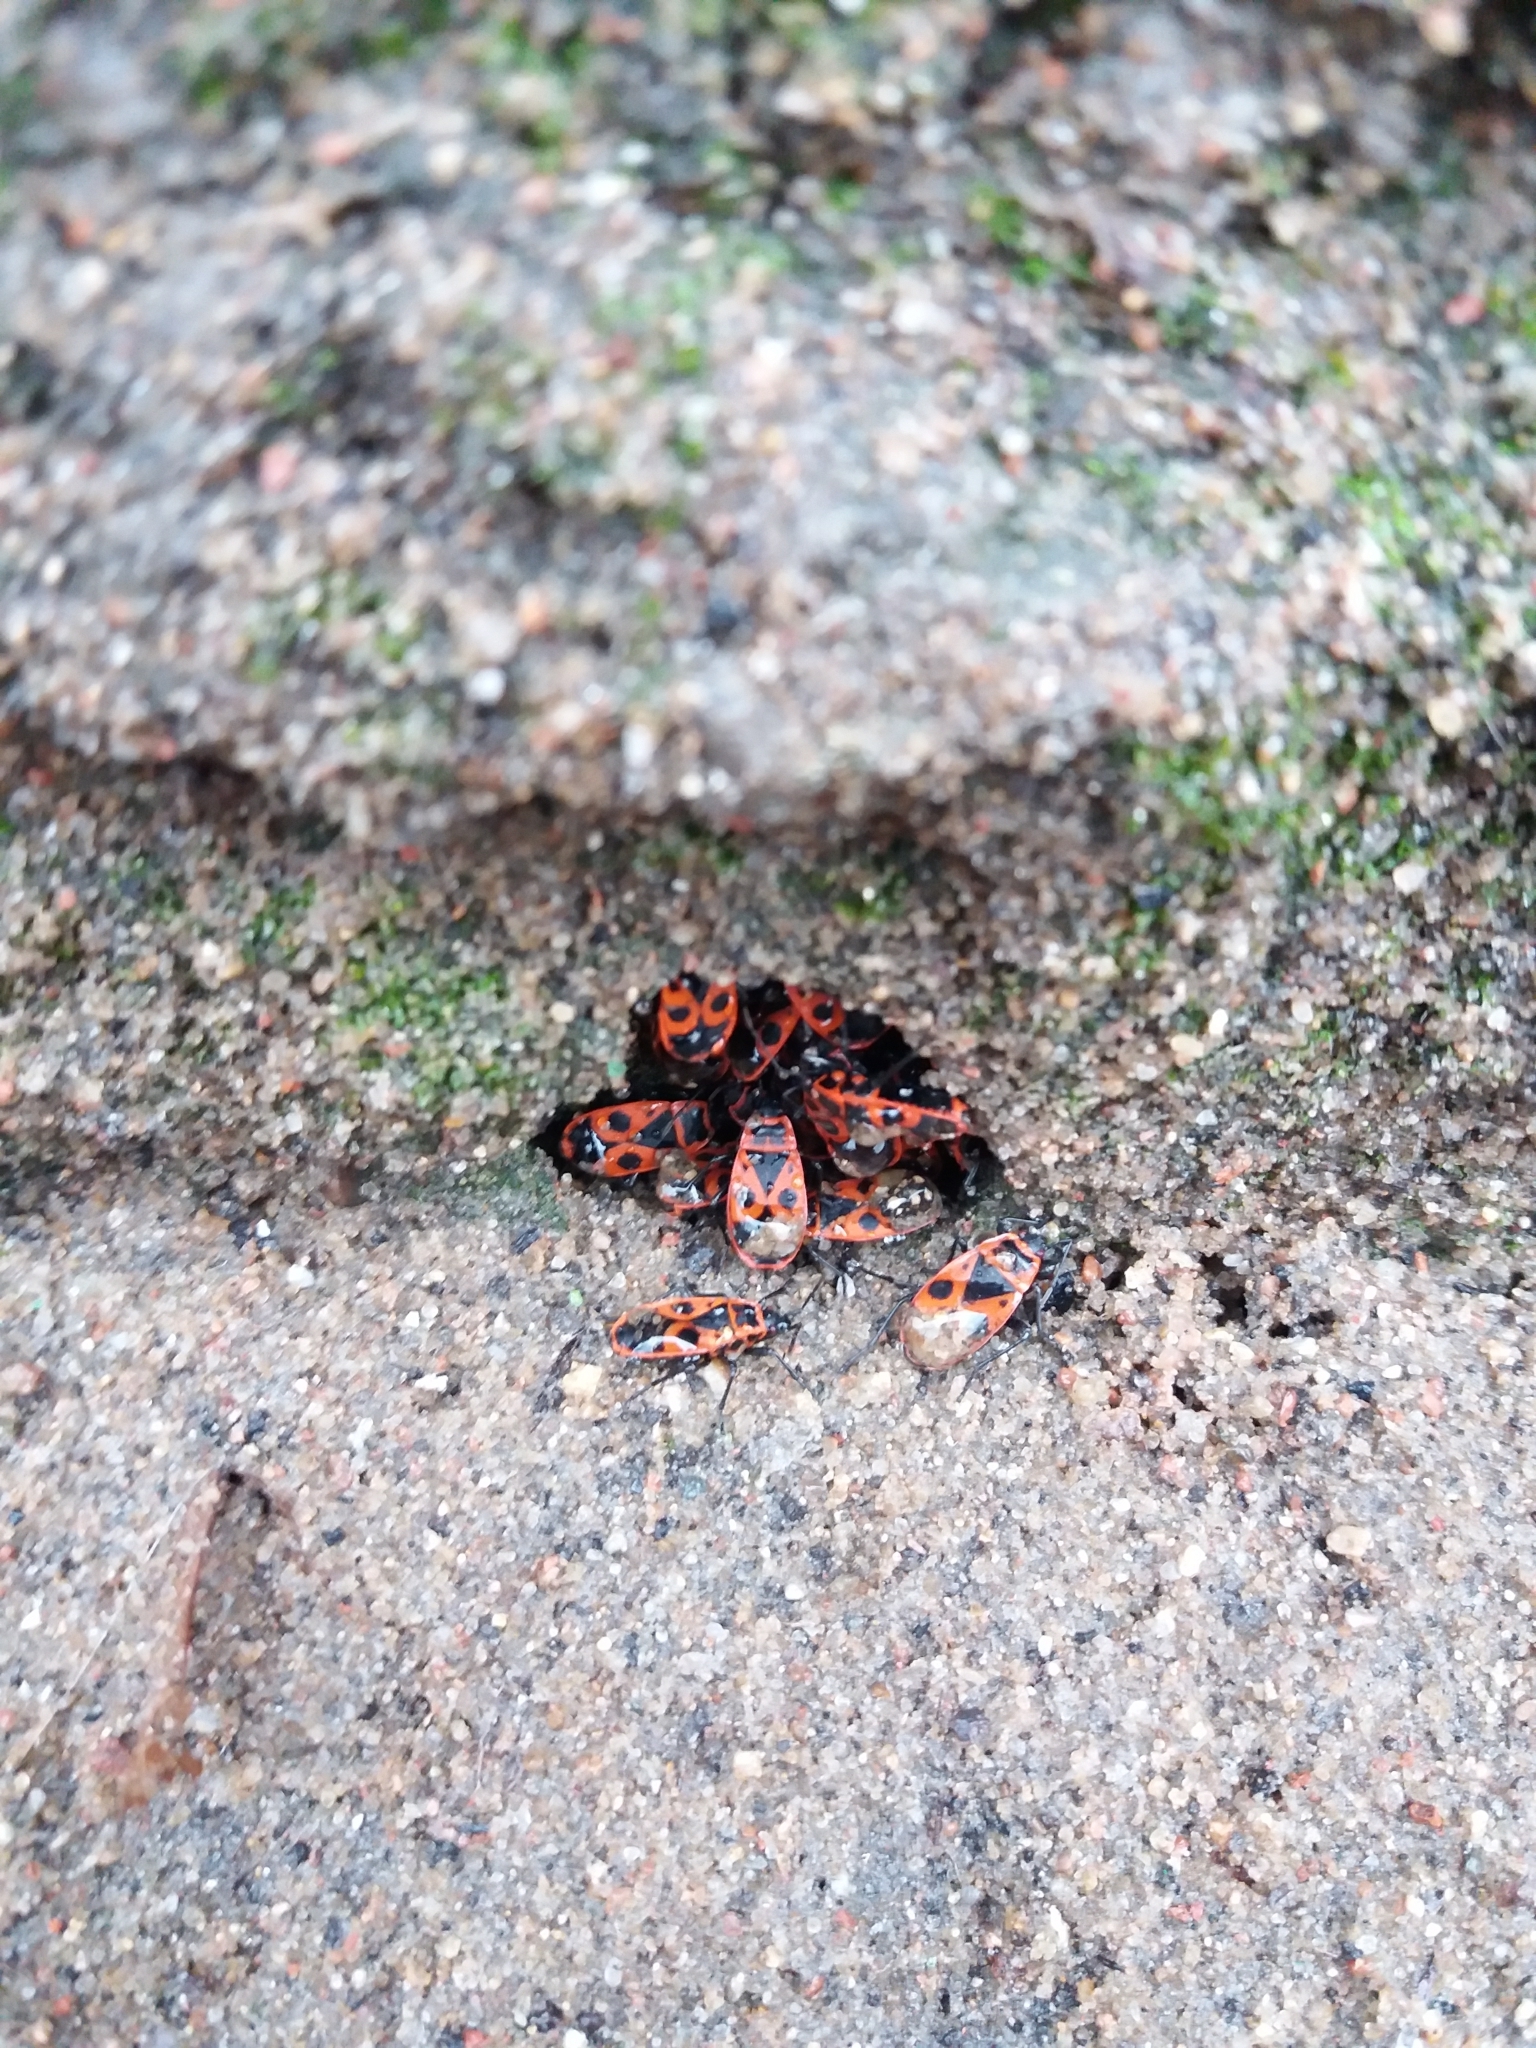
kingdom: Animalia
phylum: Arthropoda
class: Insecta
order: Hemiptera
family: Pyrrhocoridae
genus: Pyrrhocoris
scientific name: Pyrrhocoris apterus
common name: Firebug
